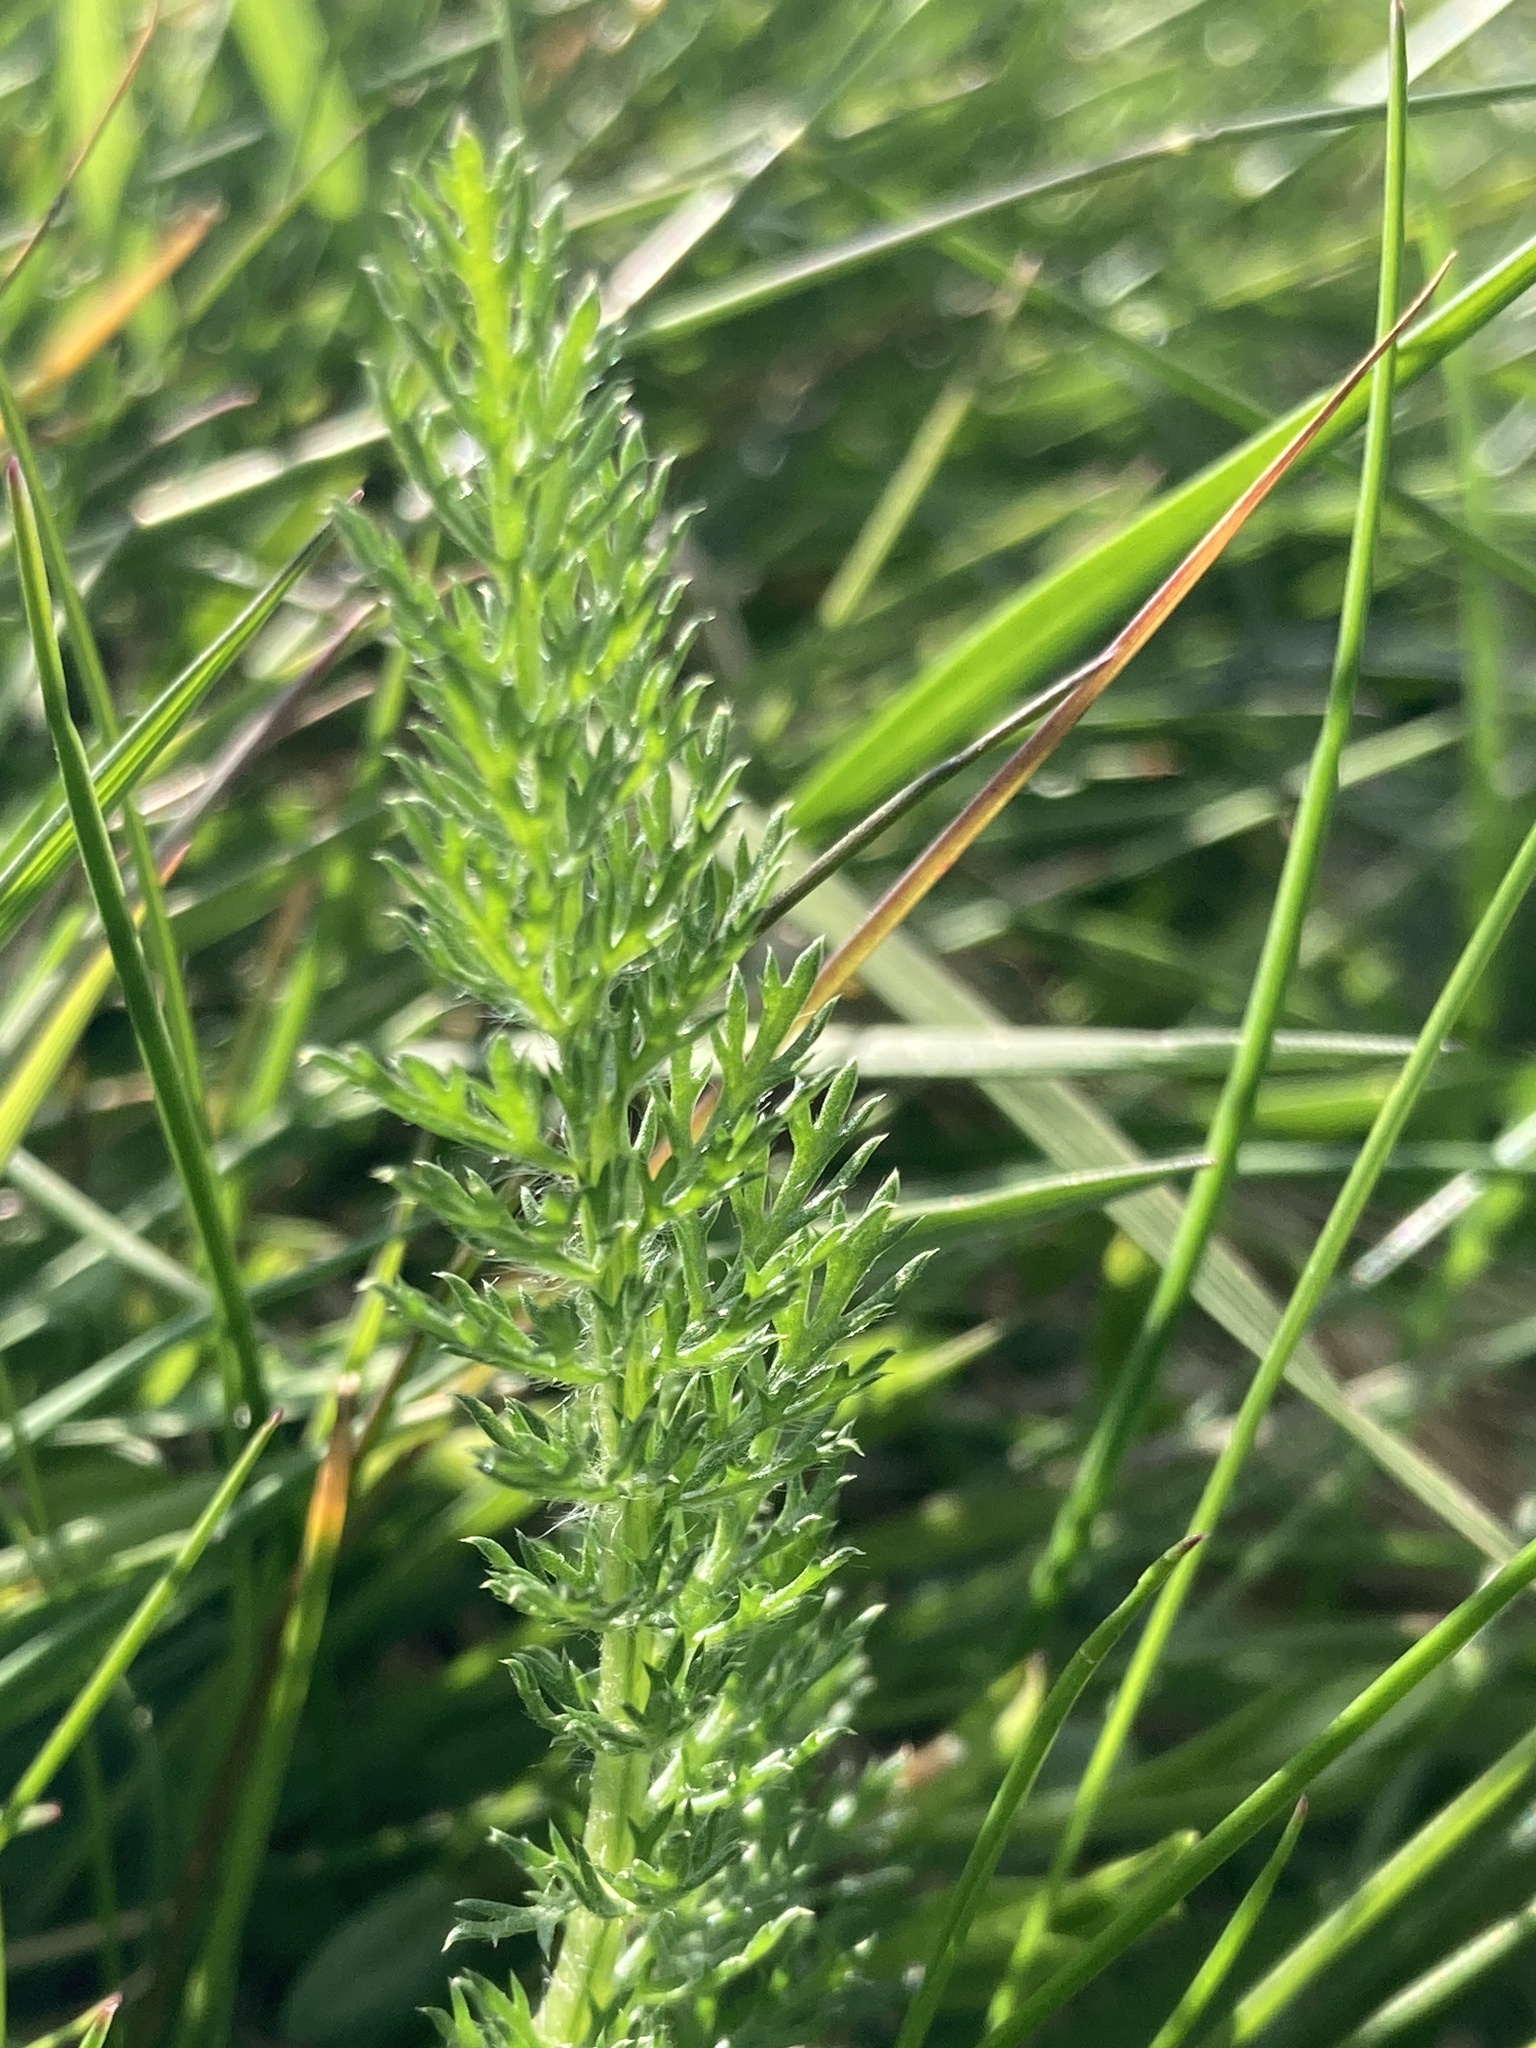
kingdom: Plantae
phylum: Tracheophyta
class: Magnoliopsida
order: Asterales
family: Asteraceae
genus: Achillea
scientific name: Achillea millefolium
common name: Yarrow
